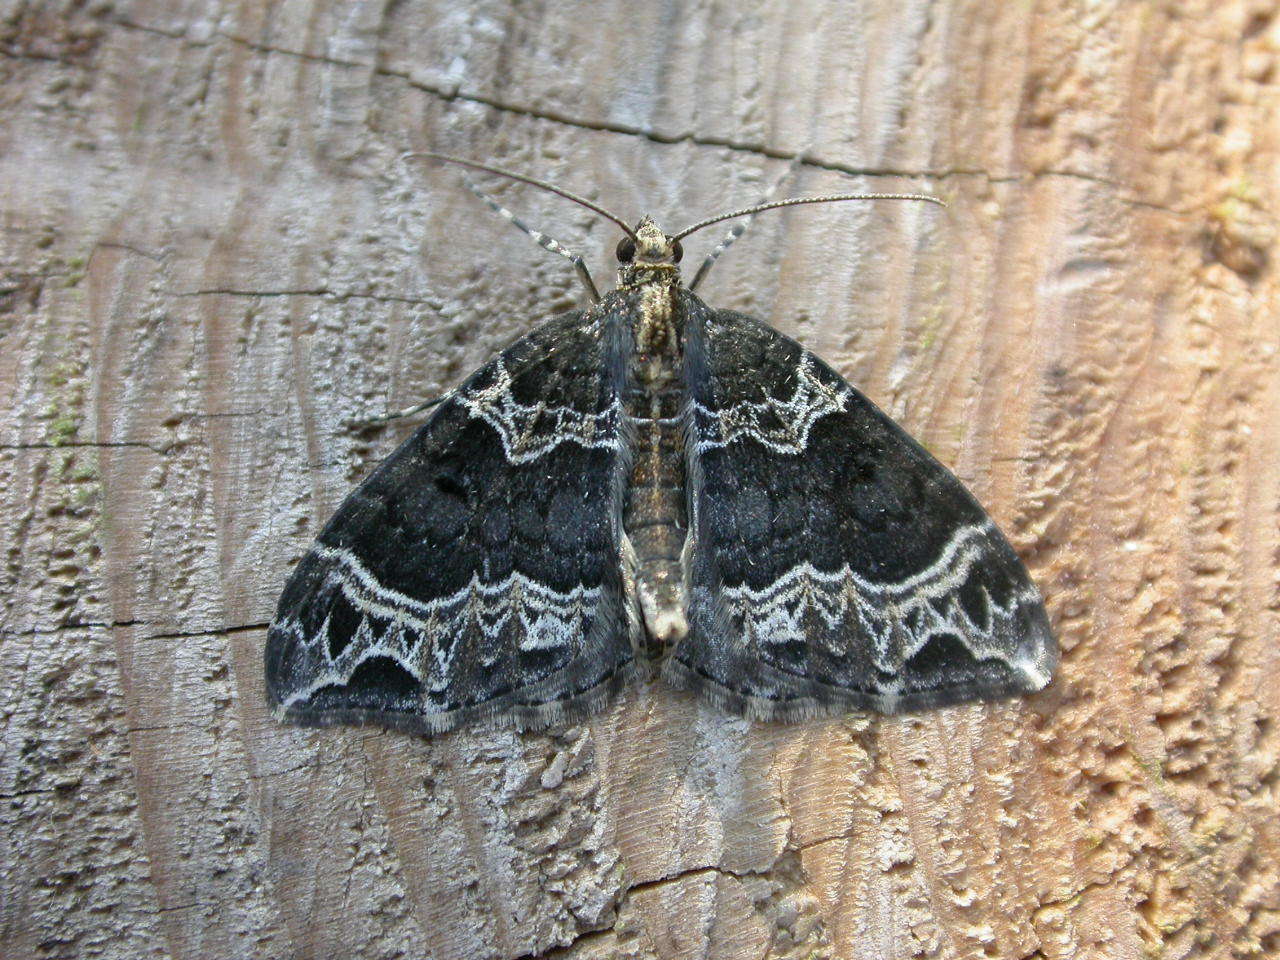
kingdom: Animalia
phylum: Arthropoda
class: Insecta
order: Lepidoptera
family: Geometridae
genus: Ecliptopera
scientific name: Ecliptopera silaceata
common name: Small phoenix
